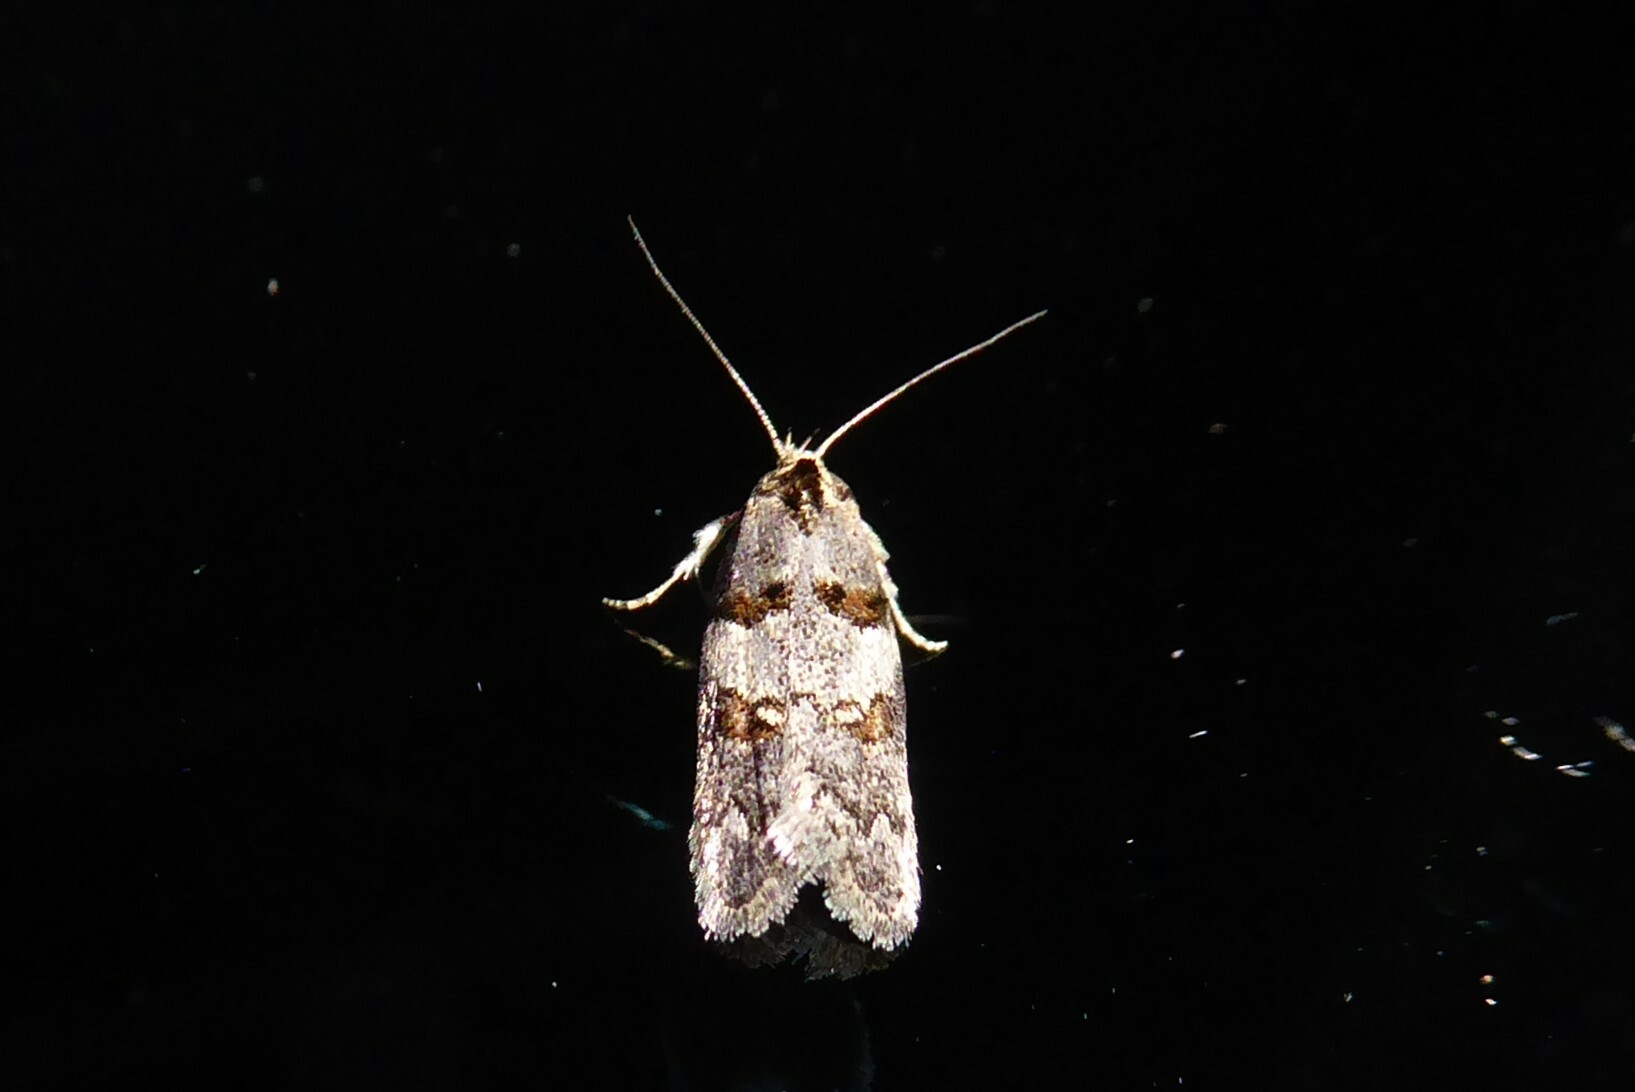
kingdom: Animalia
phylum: Arthropoda
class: Insecta
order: Lepidoptera
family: Oecophoridae
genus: Trachypepla
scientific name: Trachypepla contritella
